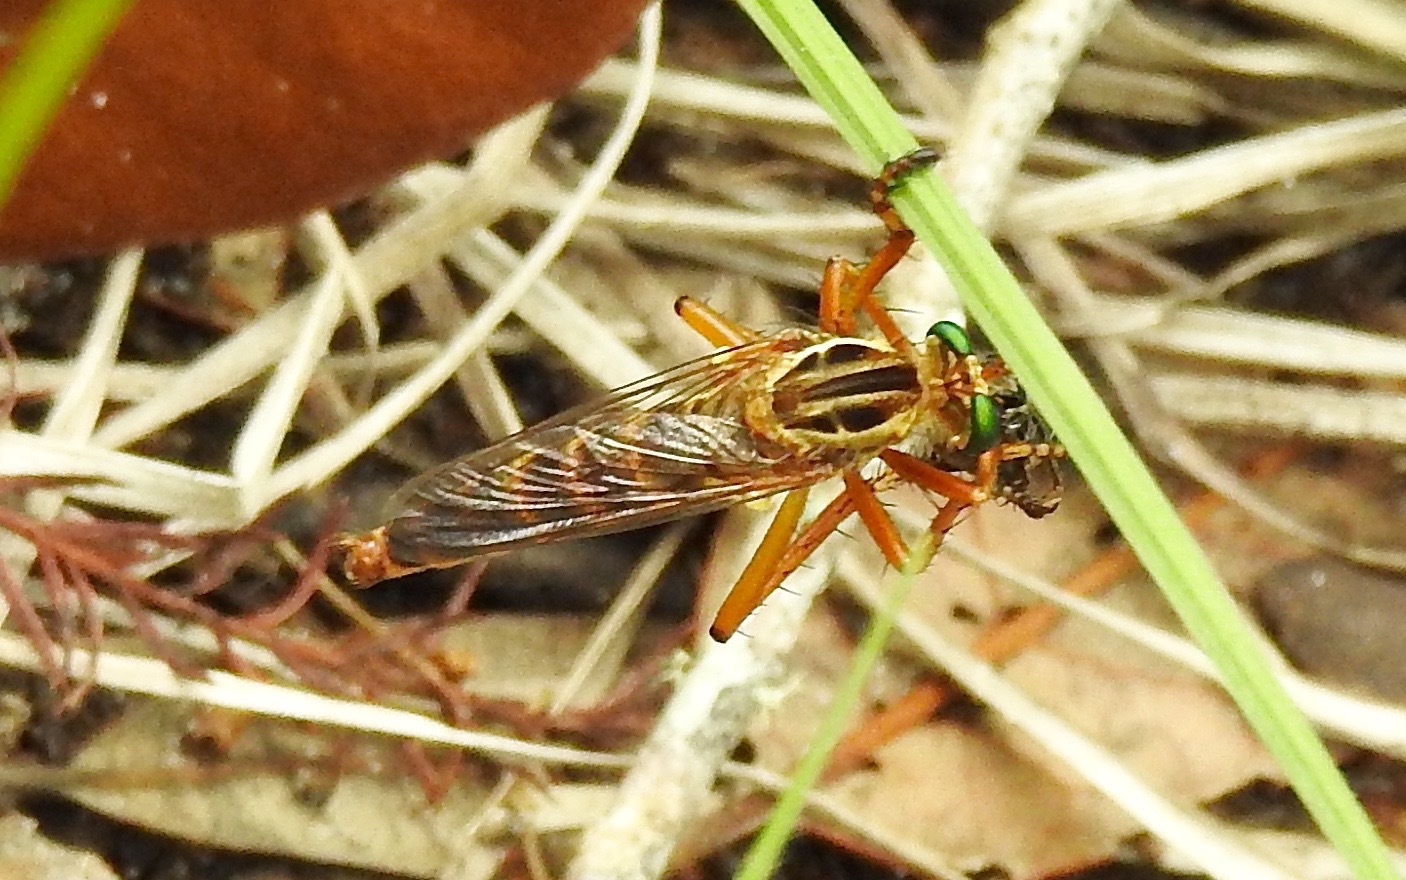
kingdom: Animalia
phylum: Arthropoda
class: Insecta
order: Diptera
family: Asilidae
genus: Diogmites
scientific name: Diogmites properans
